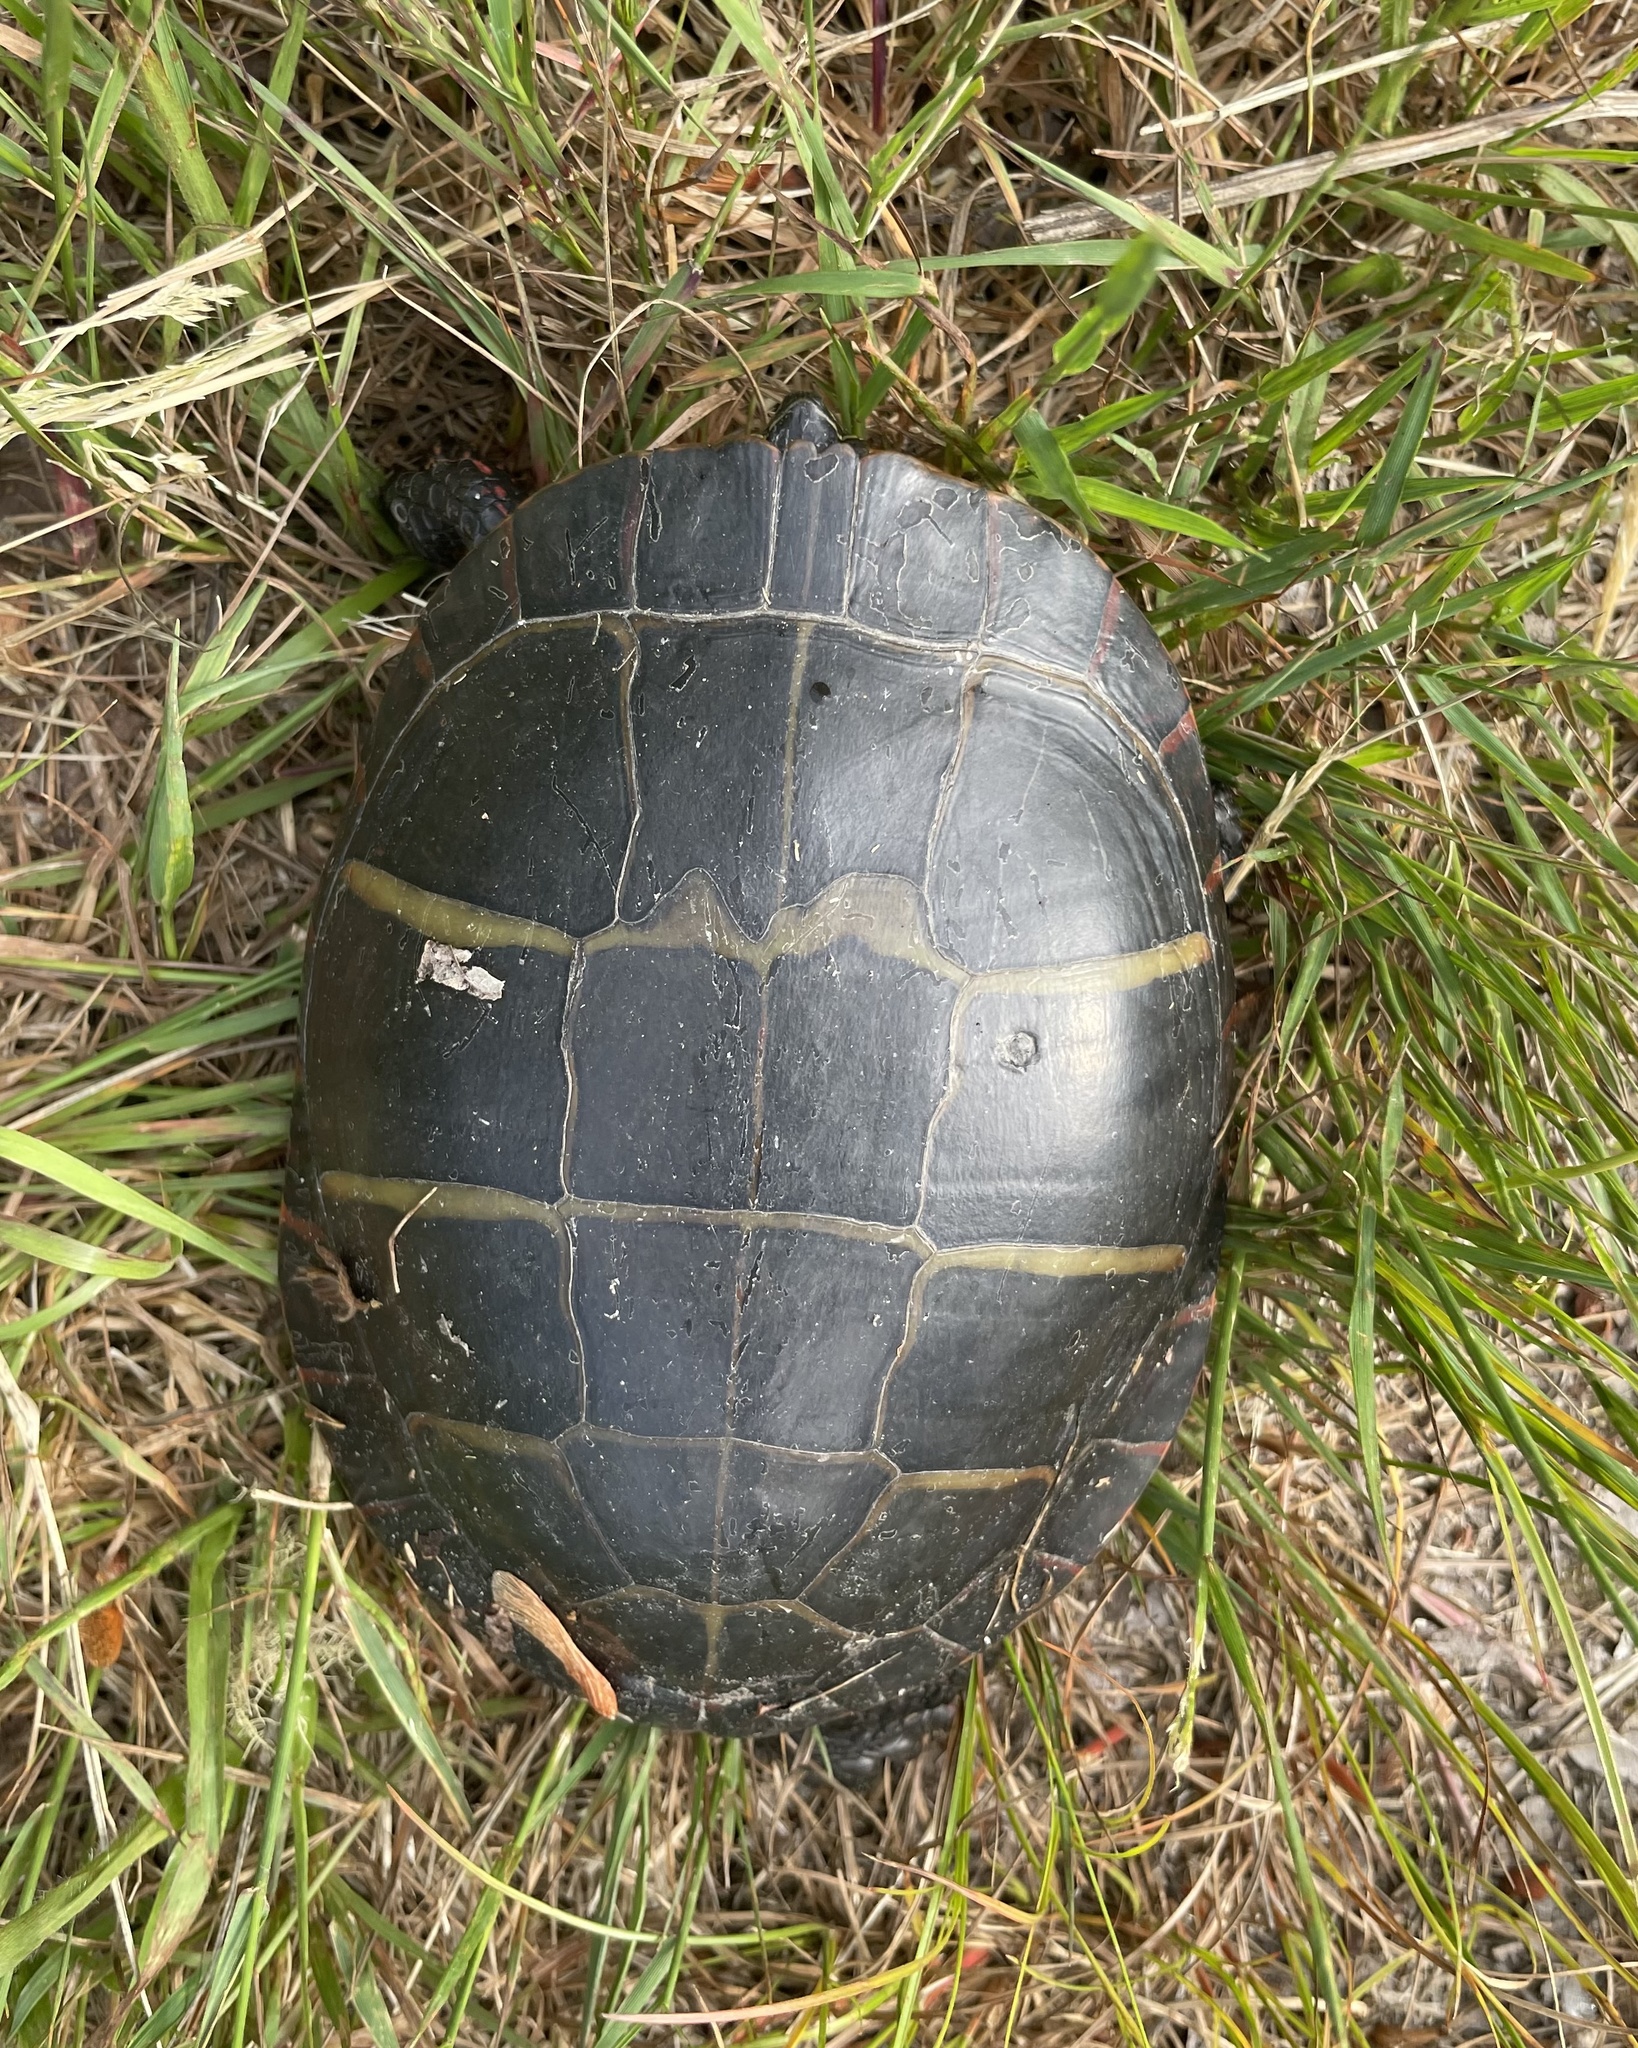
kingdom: Animalia
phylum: Chordata
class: Testudines
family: Emydidae
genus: Chrysemys
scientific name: Chrysemys picta
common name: Painted turtle
